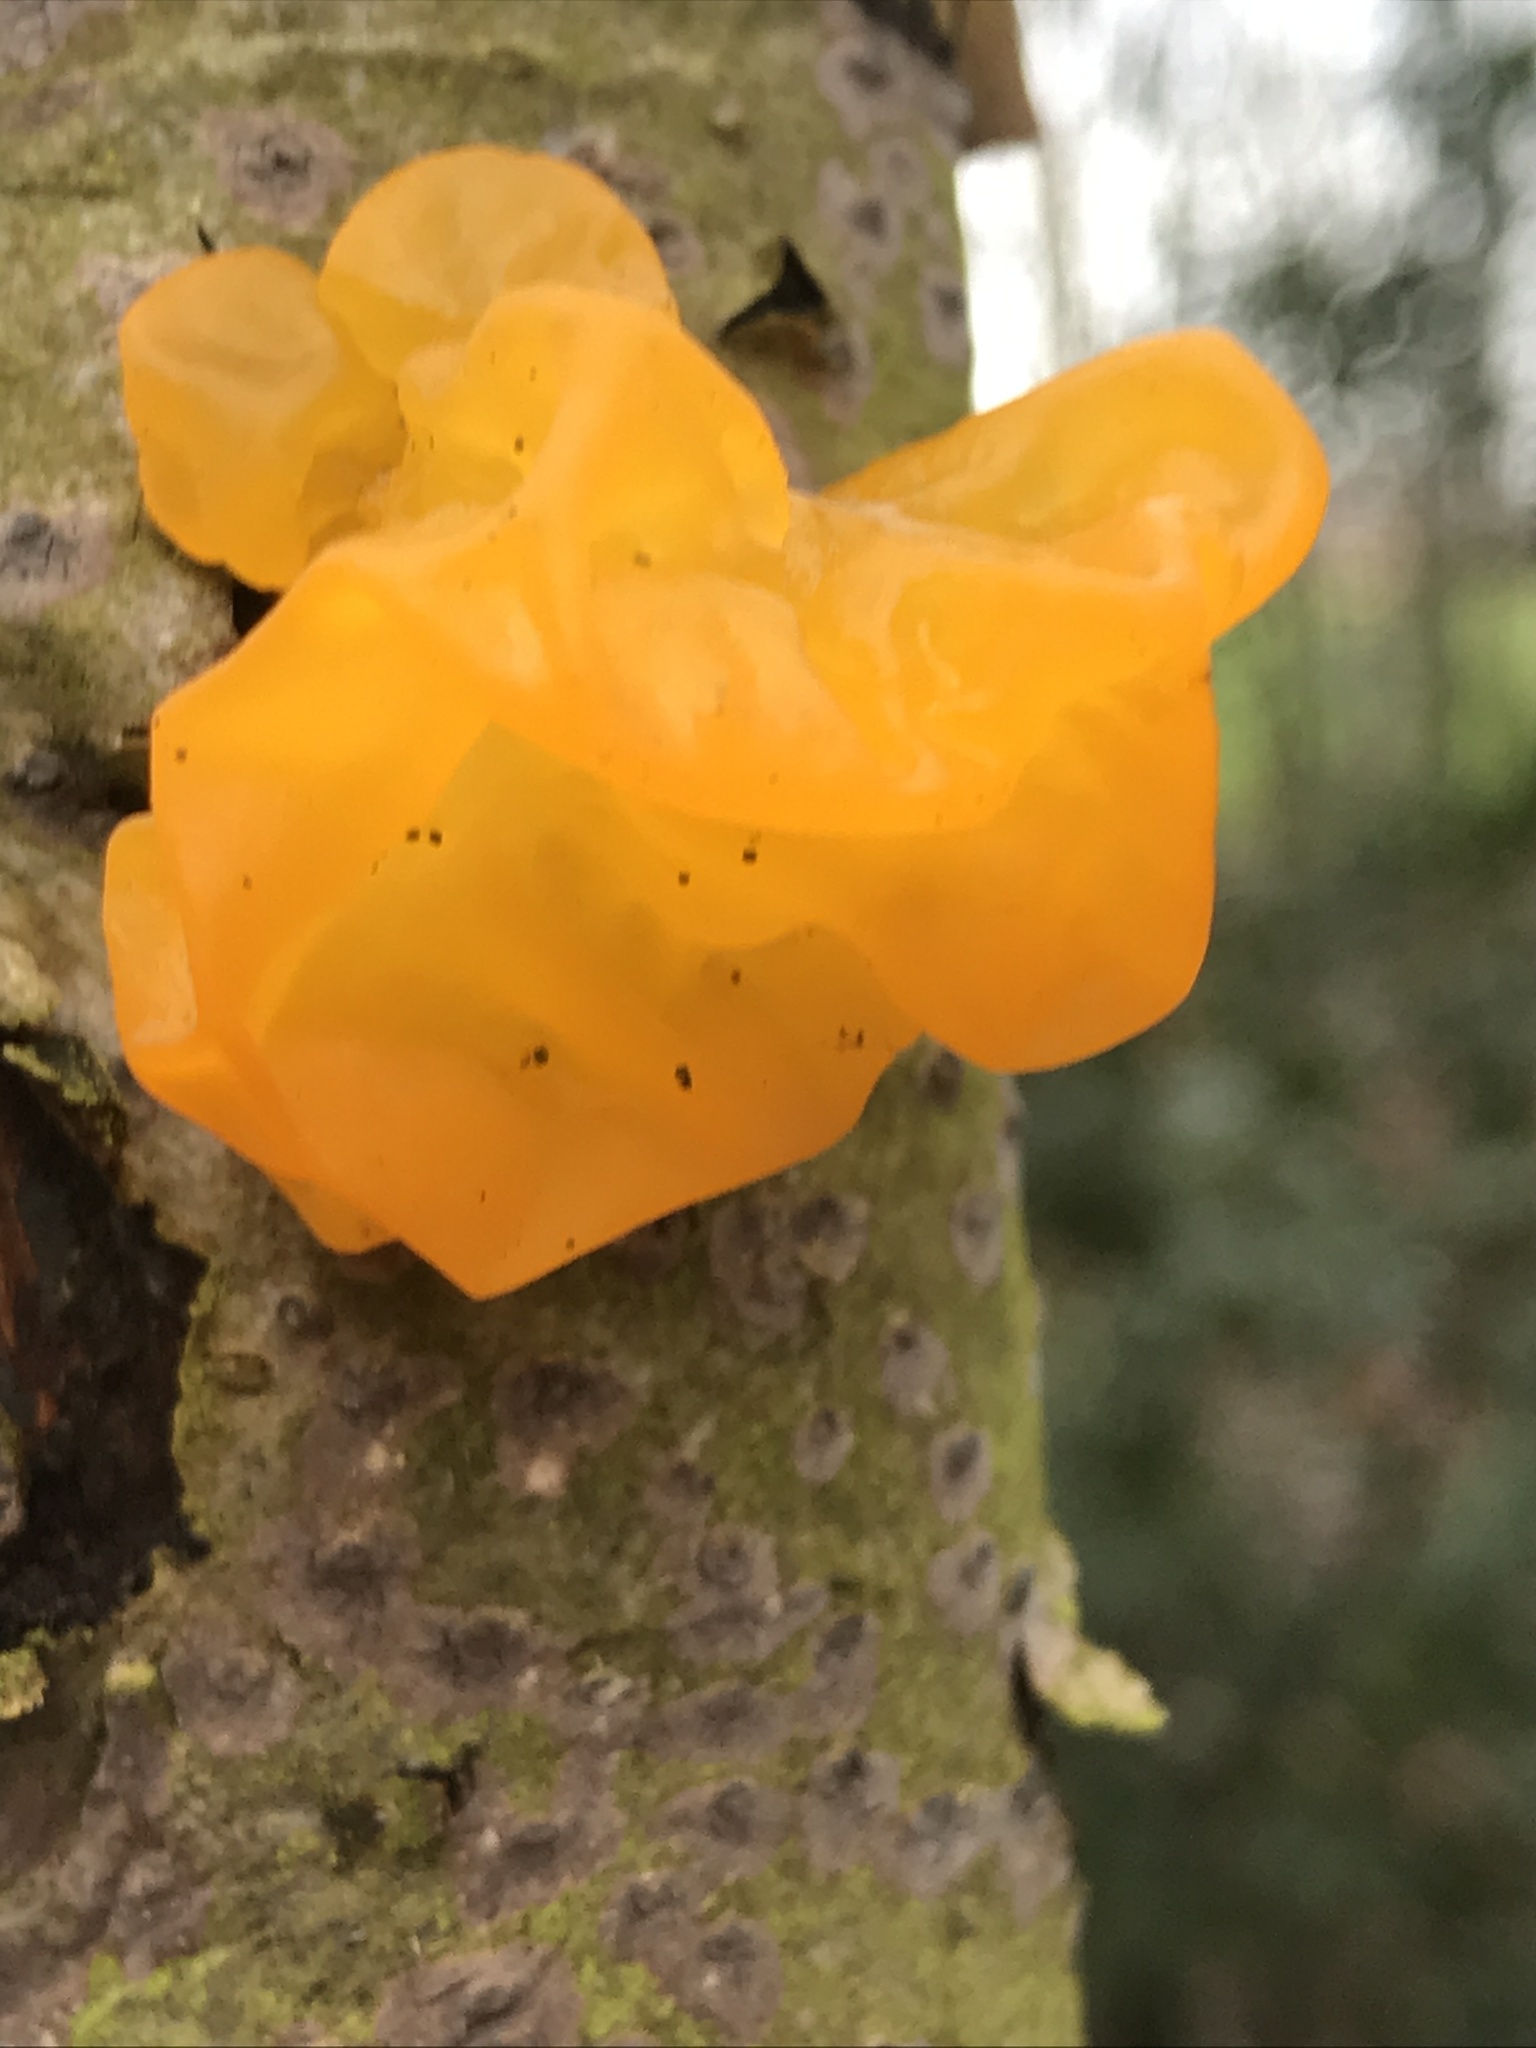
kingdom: Fungi
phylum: Basidiomycota
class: Tremellomycetes
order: Tremellales
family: Tremellaceae
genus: Tremella
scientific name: Tremella mesenterica
